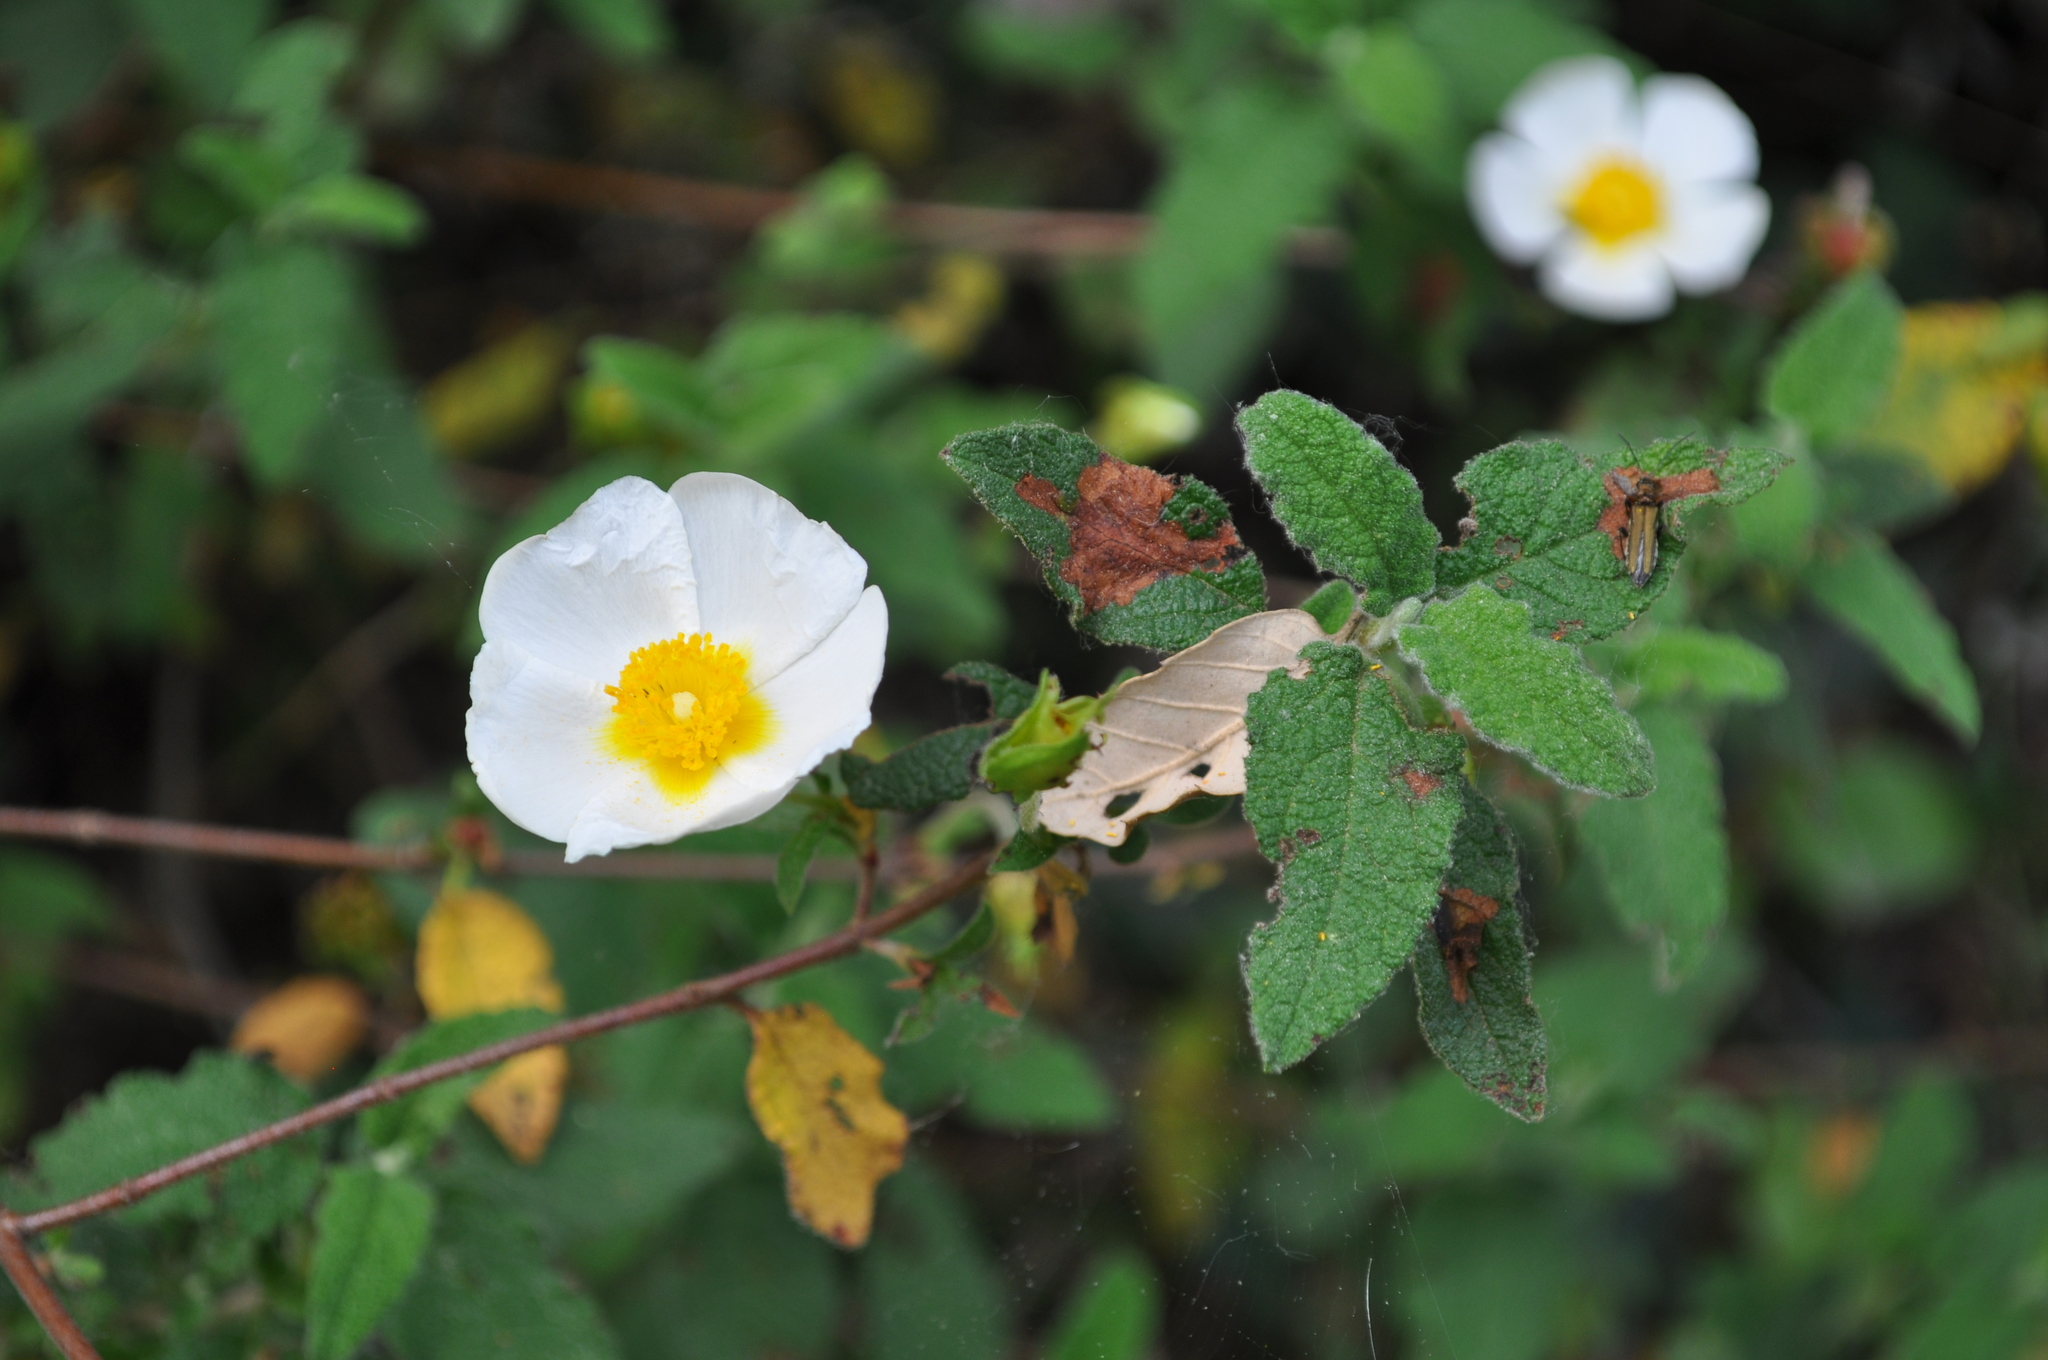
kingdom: Plantae
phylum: Tracheophyta
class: Magnoliopsida
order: Malvales
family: Cistaceae
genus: Cistus
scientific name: Cistus salviifolius
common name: Salvia cistus
